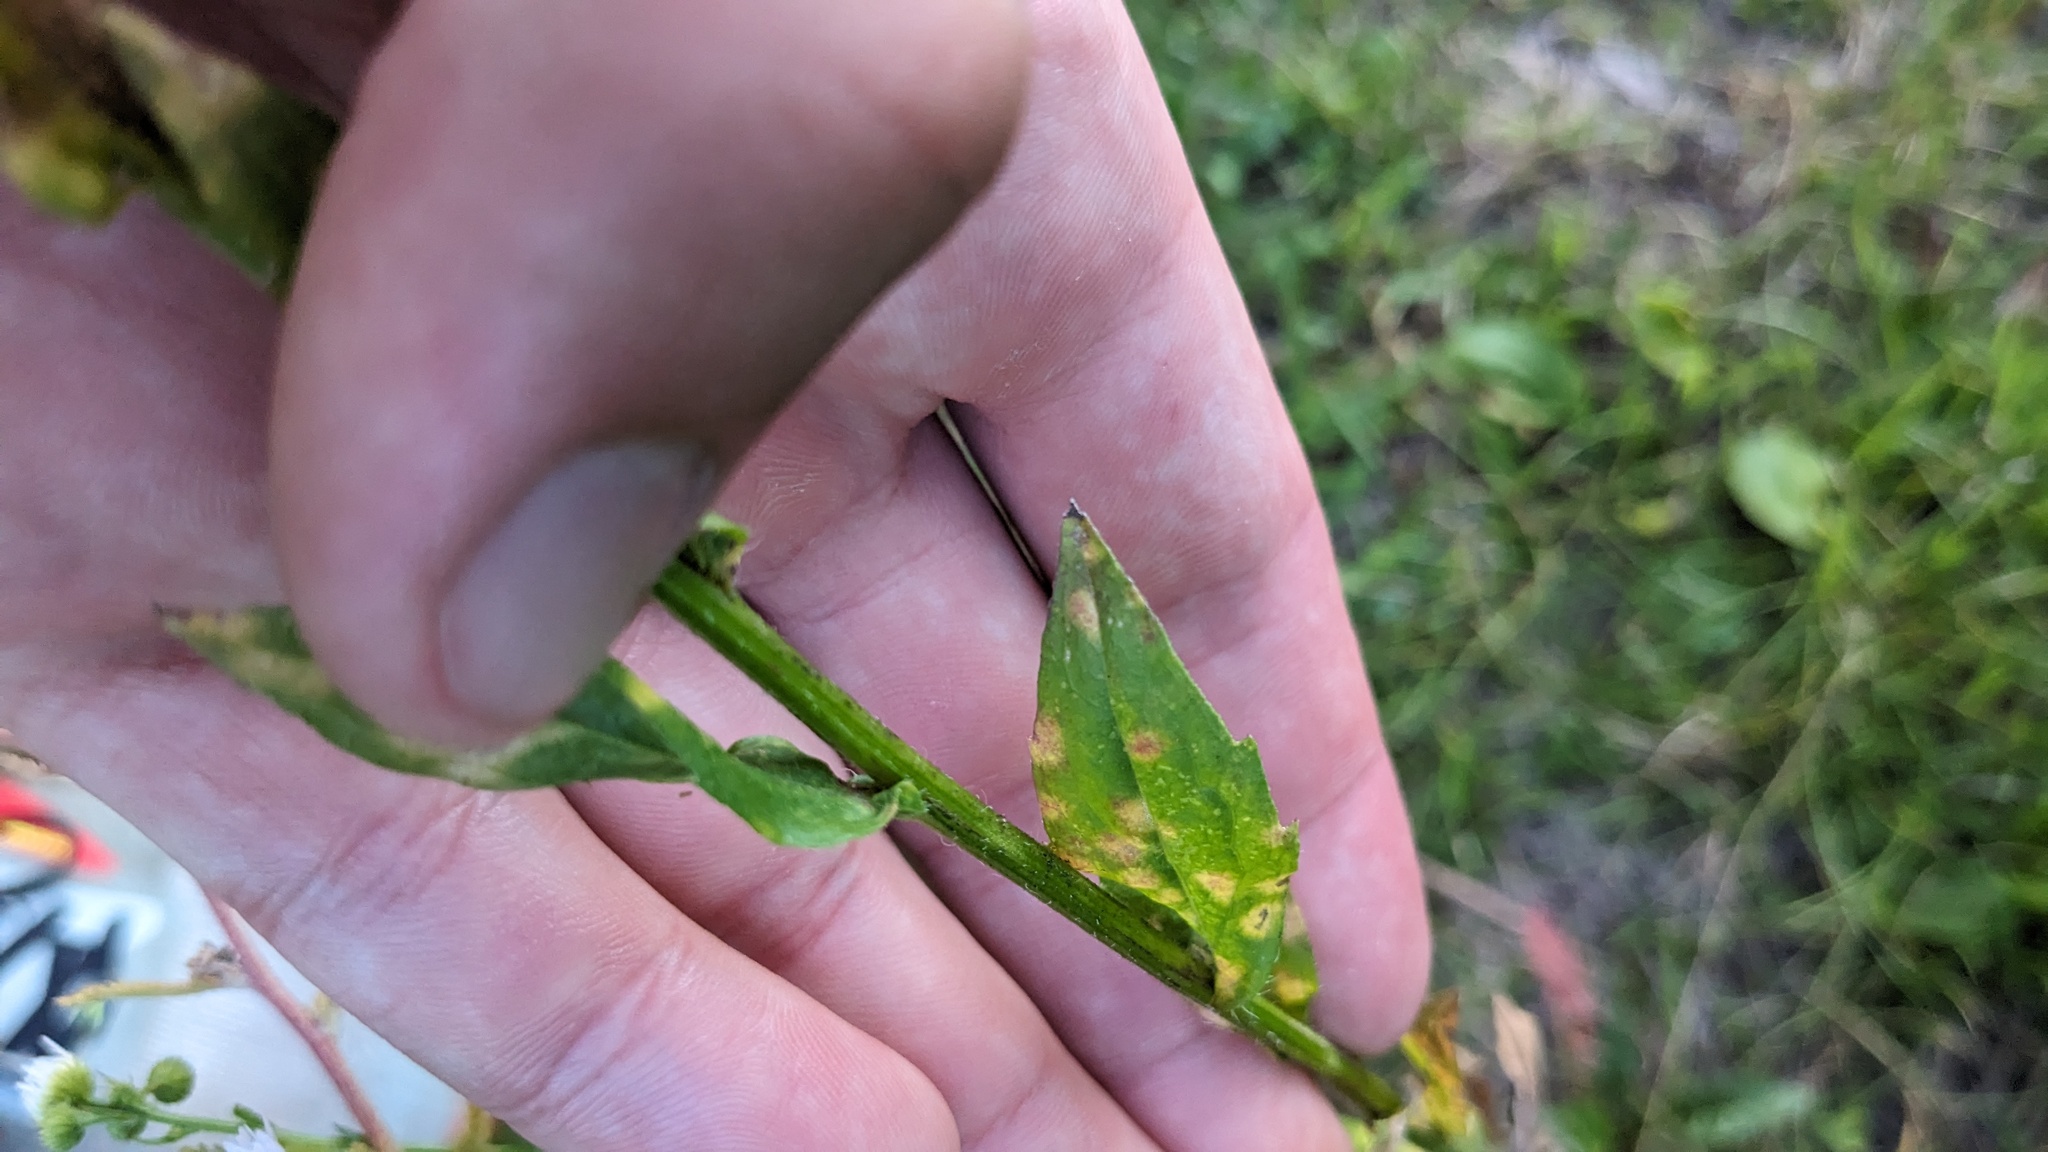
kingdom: Animalia
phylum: Arthropoda
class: Insecta
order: Diptera
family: Cecidomyiidae
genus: Asteromyia
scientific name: Asteromyia modesta
